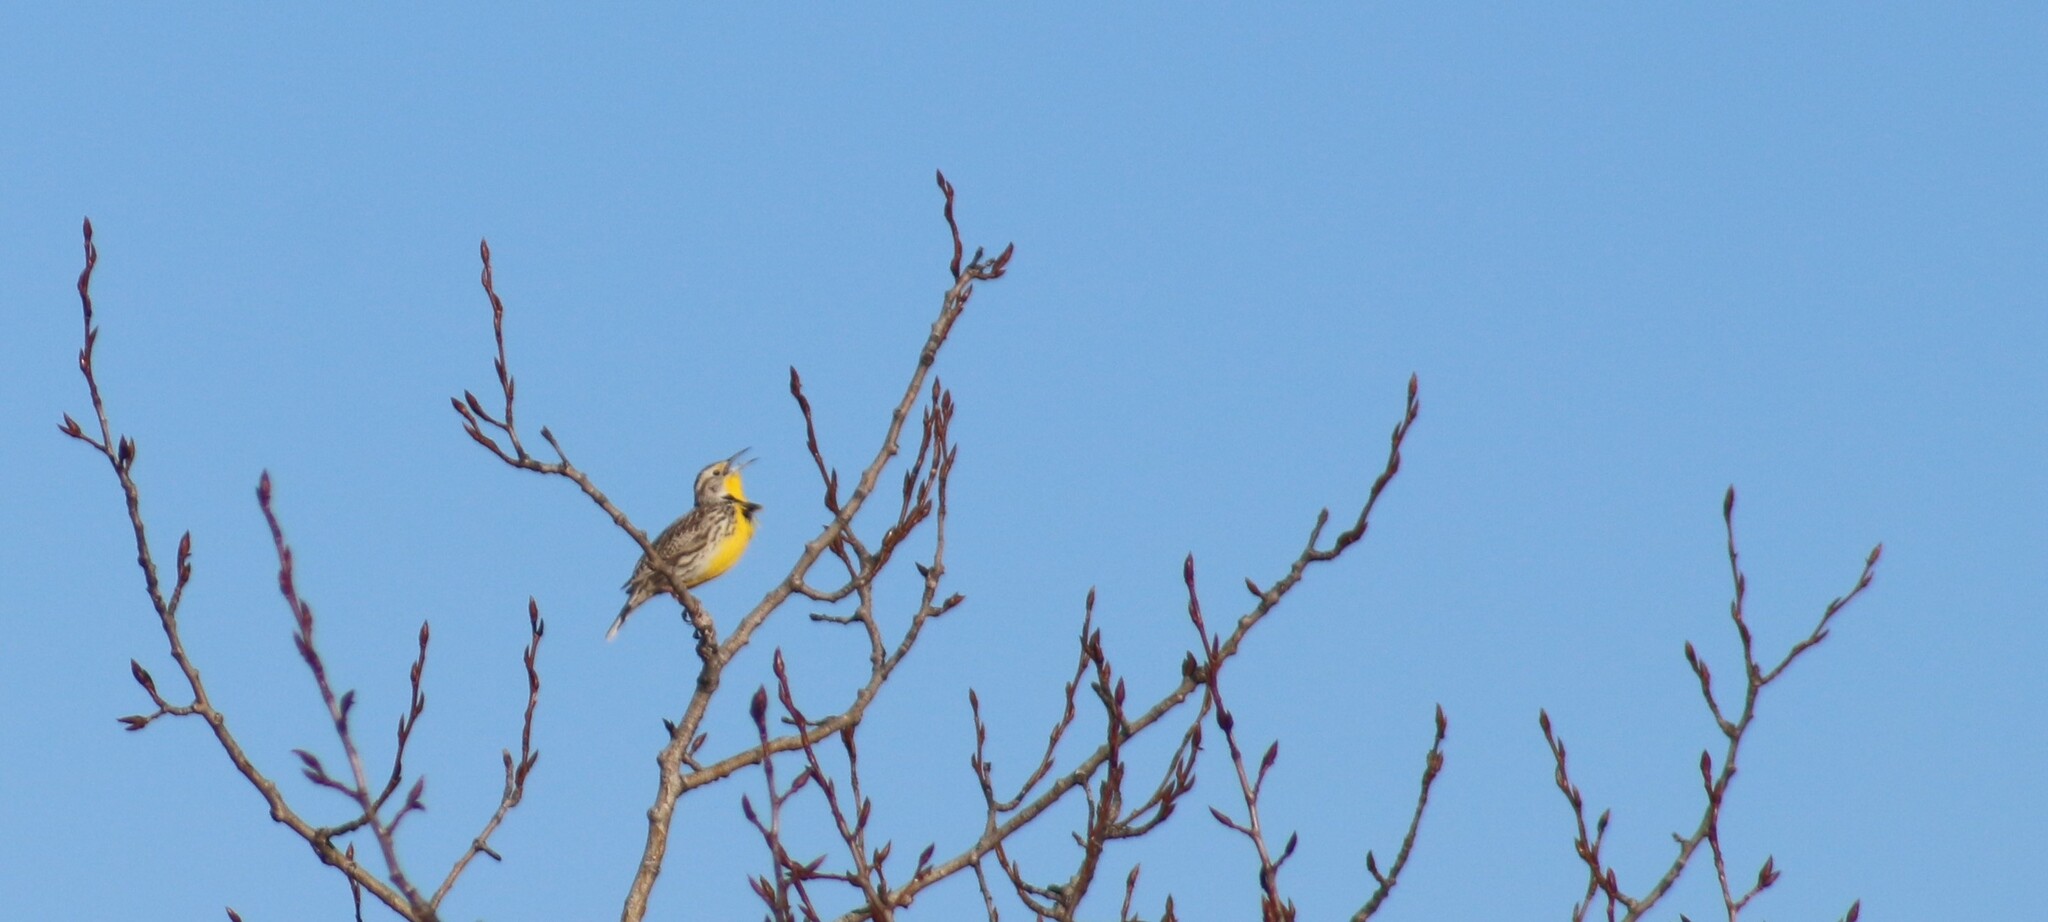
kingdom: Animalia
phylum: Chordata
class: Aves
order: Passeriformes
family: Icteridae
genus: Sturnella
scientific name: Sturnella neglecta
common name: Western meadowlark
